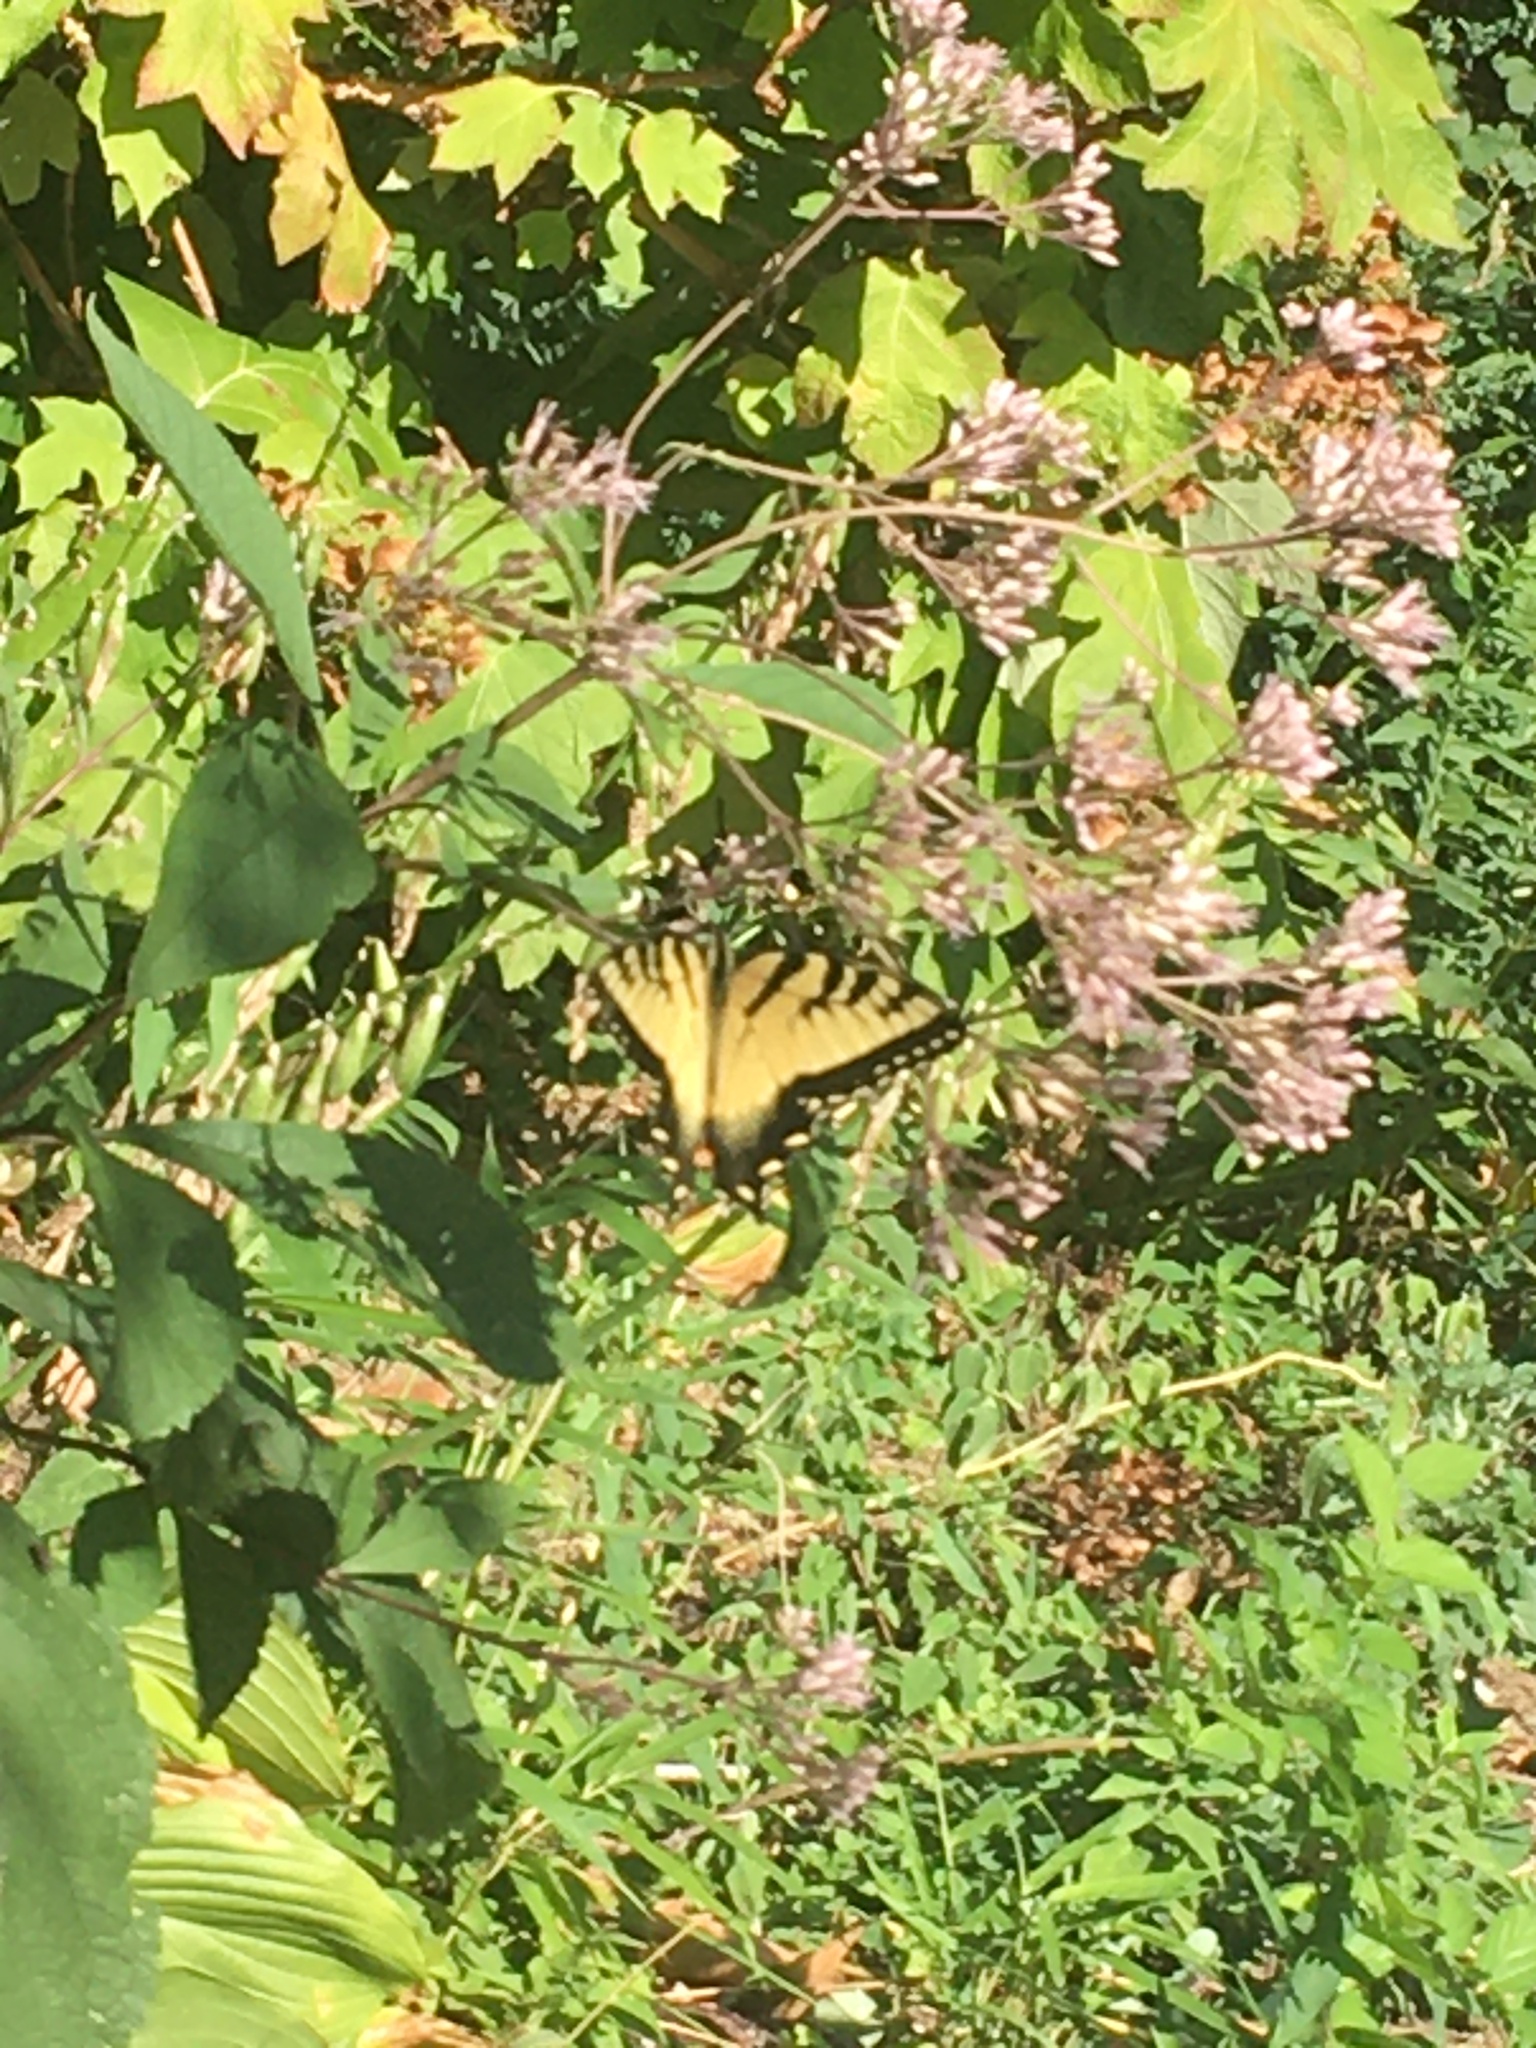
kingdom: Animalia
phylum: Arthropoda
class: Insecta
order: Lepidoptera
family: Papilionidae
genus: Papilio
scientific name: Papilio glaucus
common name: Tiger swallowtail
